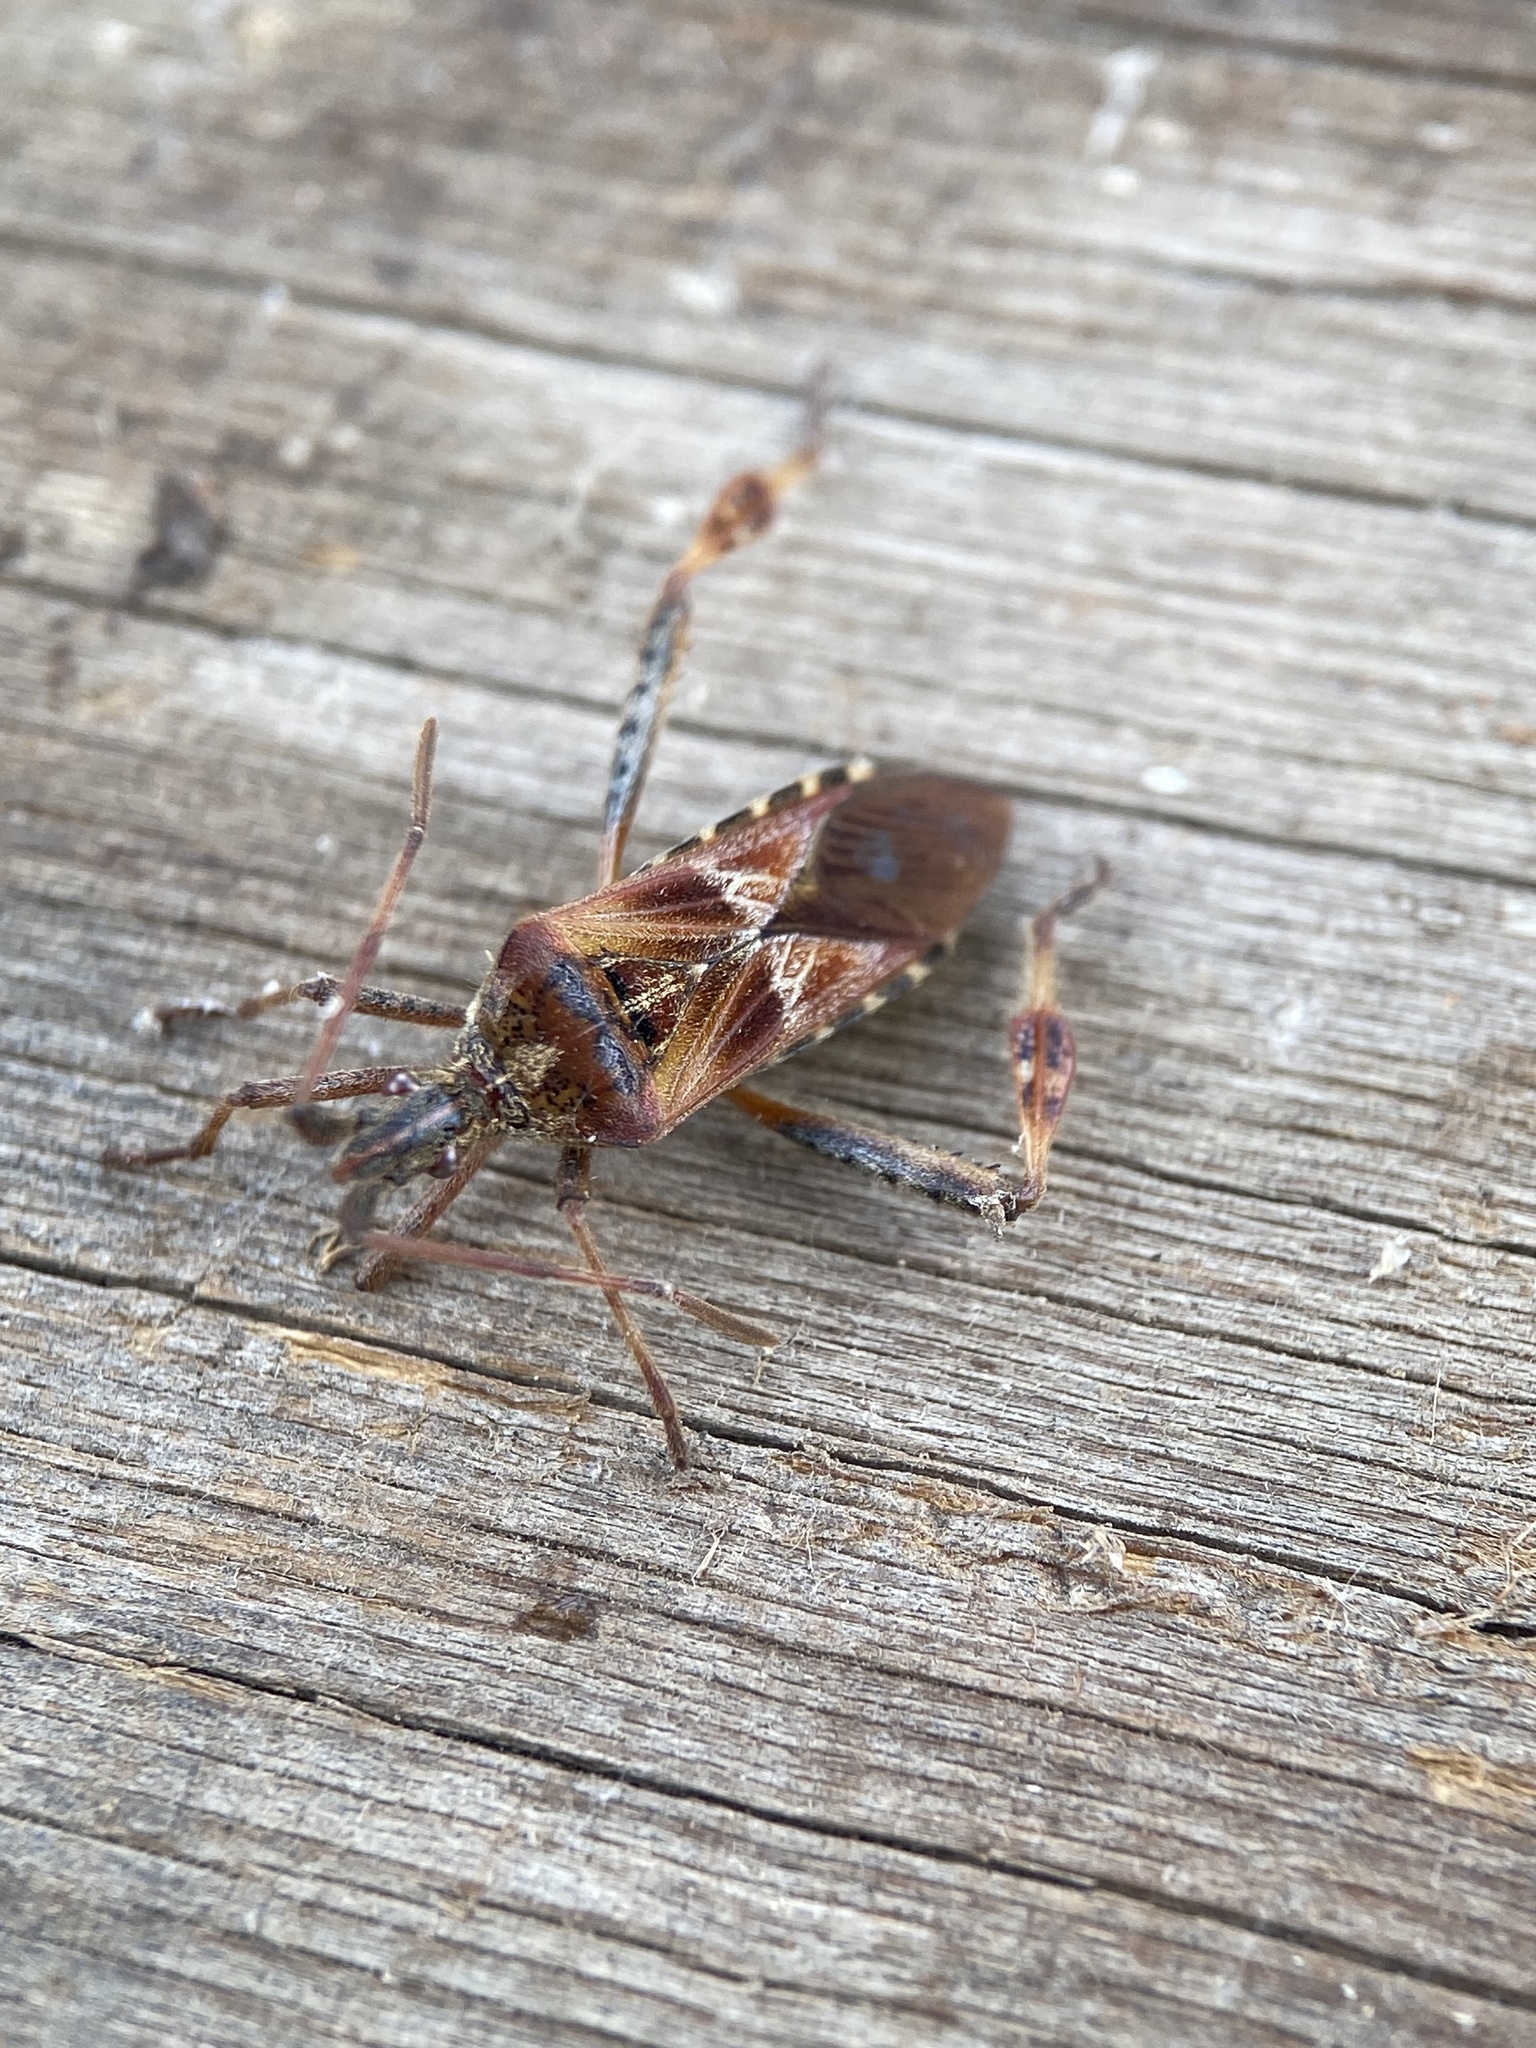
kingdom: Animalia
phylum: Arthropoda
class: Insecta
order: Hemiptera
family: Coreidae
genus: Leptoglossus
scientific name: Leptoglossus occidentalis
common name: Western conifer-seed bug
